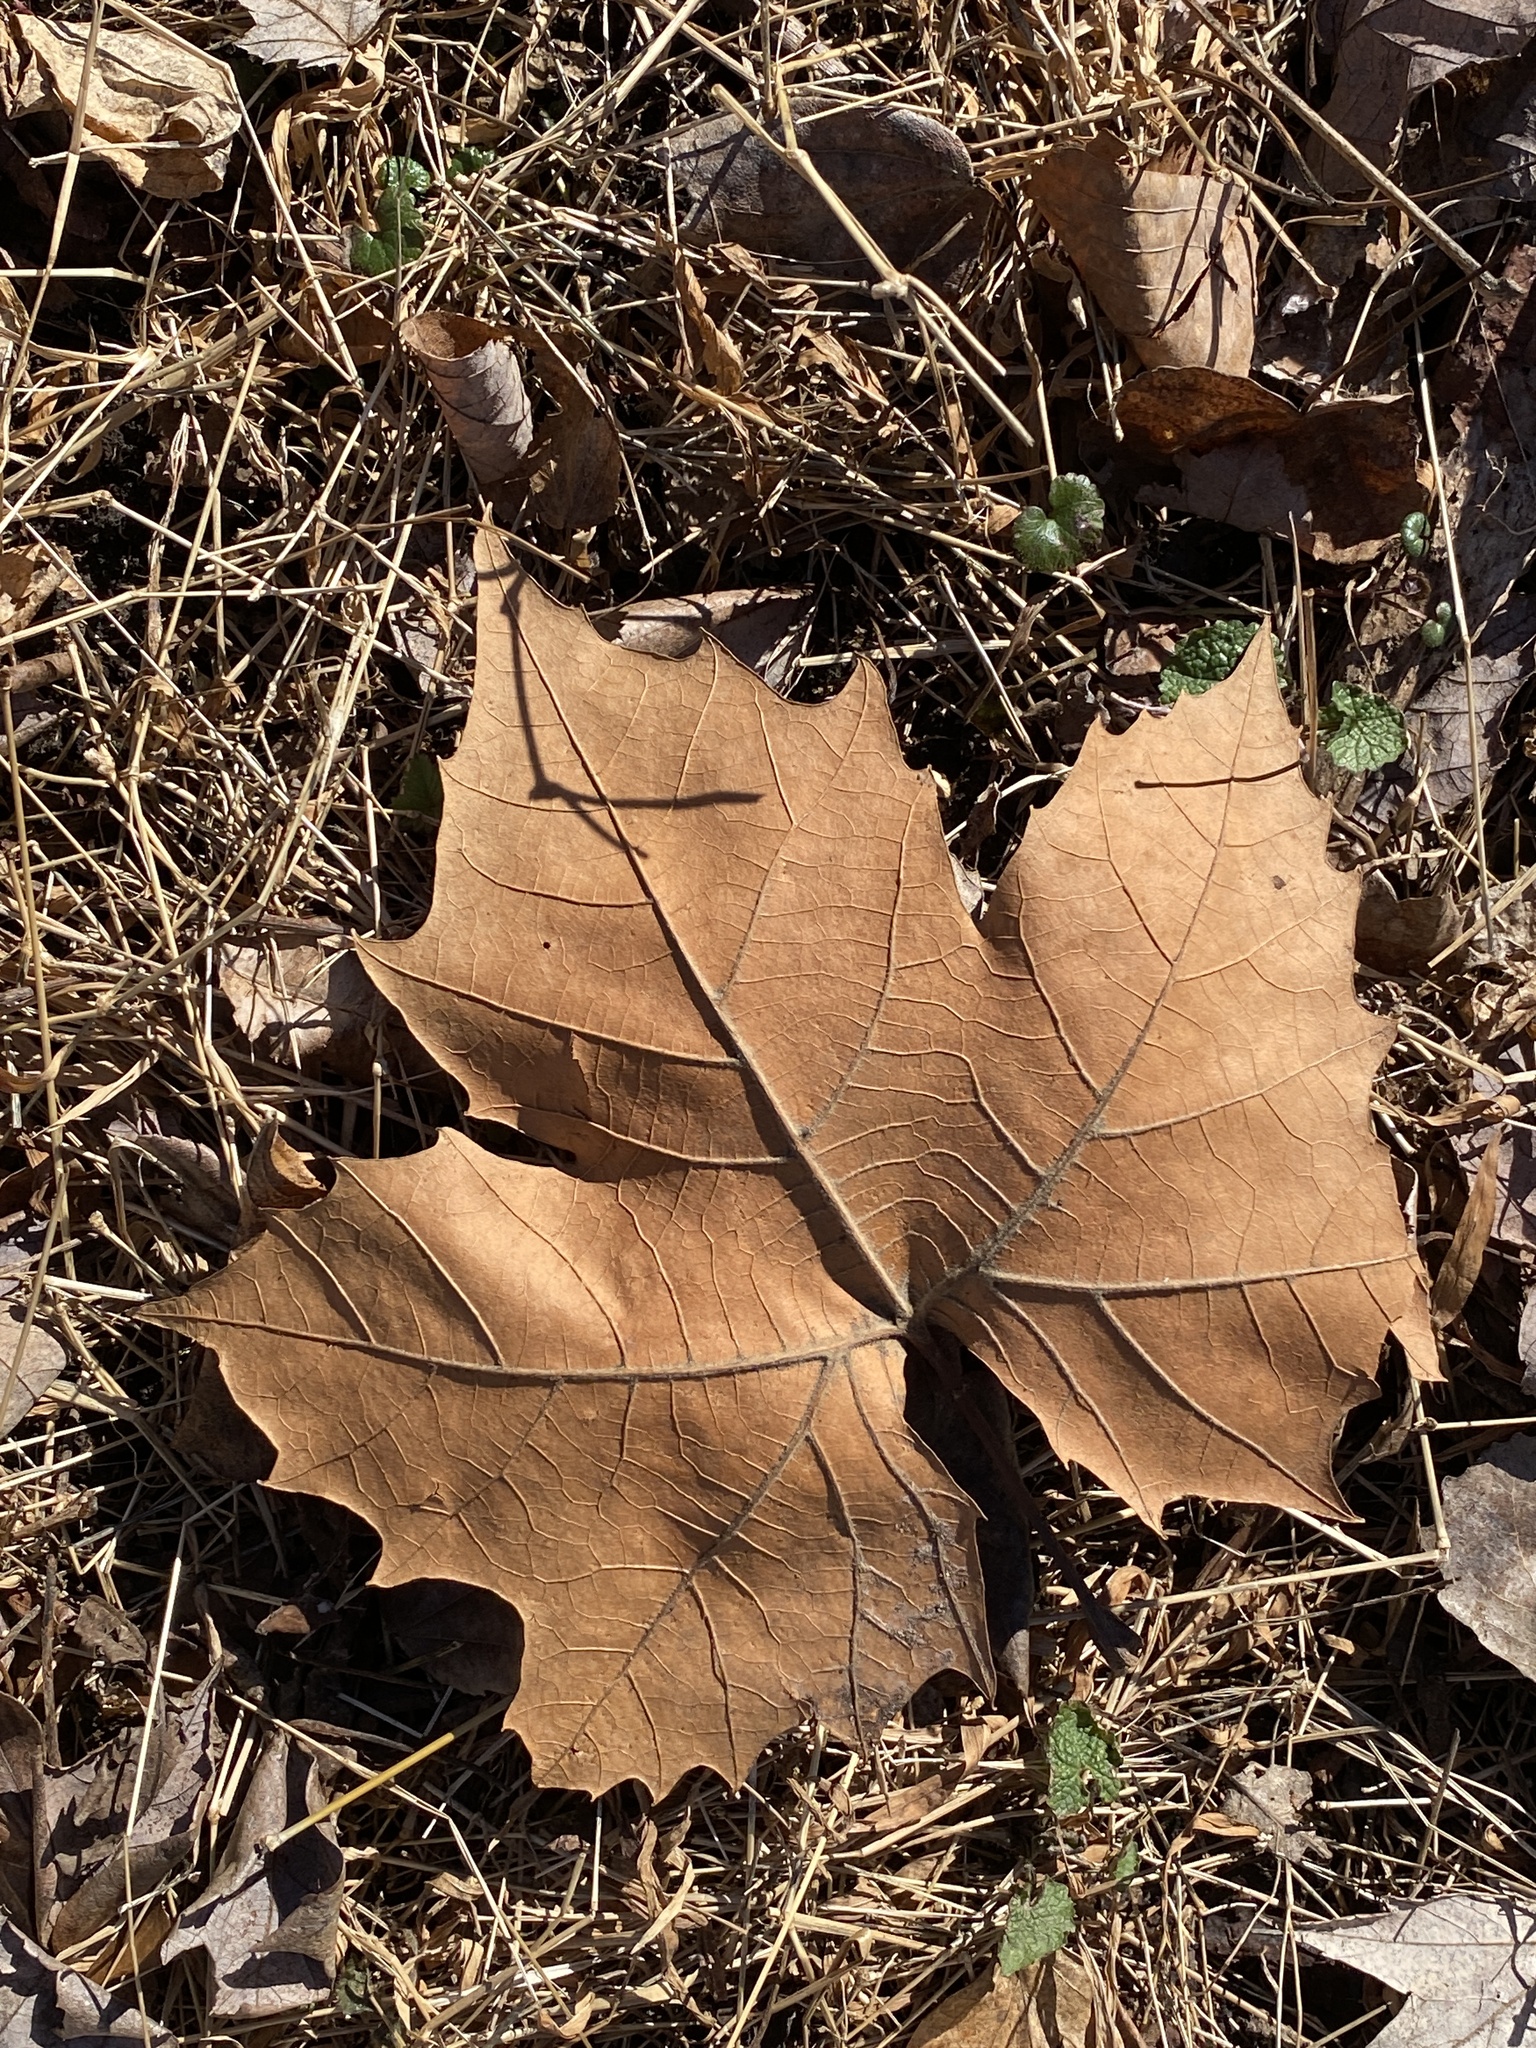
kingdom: Plantae
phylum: Tracheophyta
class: Magnoliopsida
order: Proteales
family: Platanaceae
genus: Platanus
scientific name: Platanus occidentalis
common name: American sycamore
